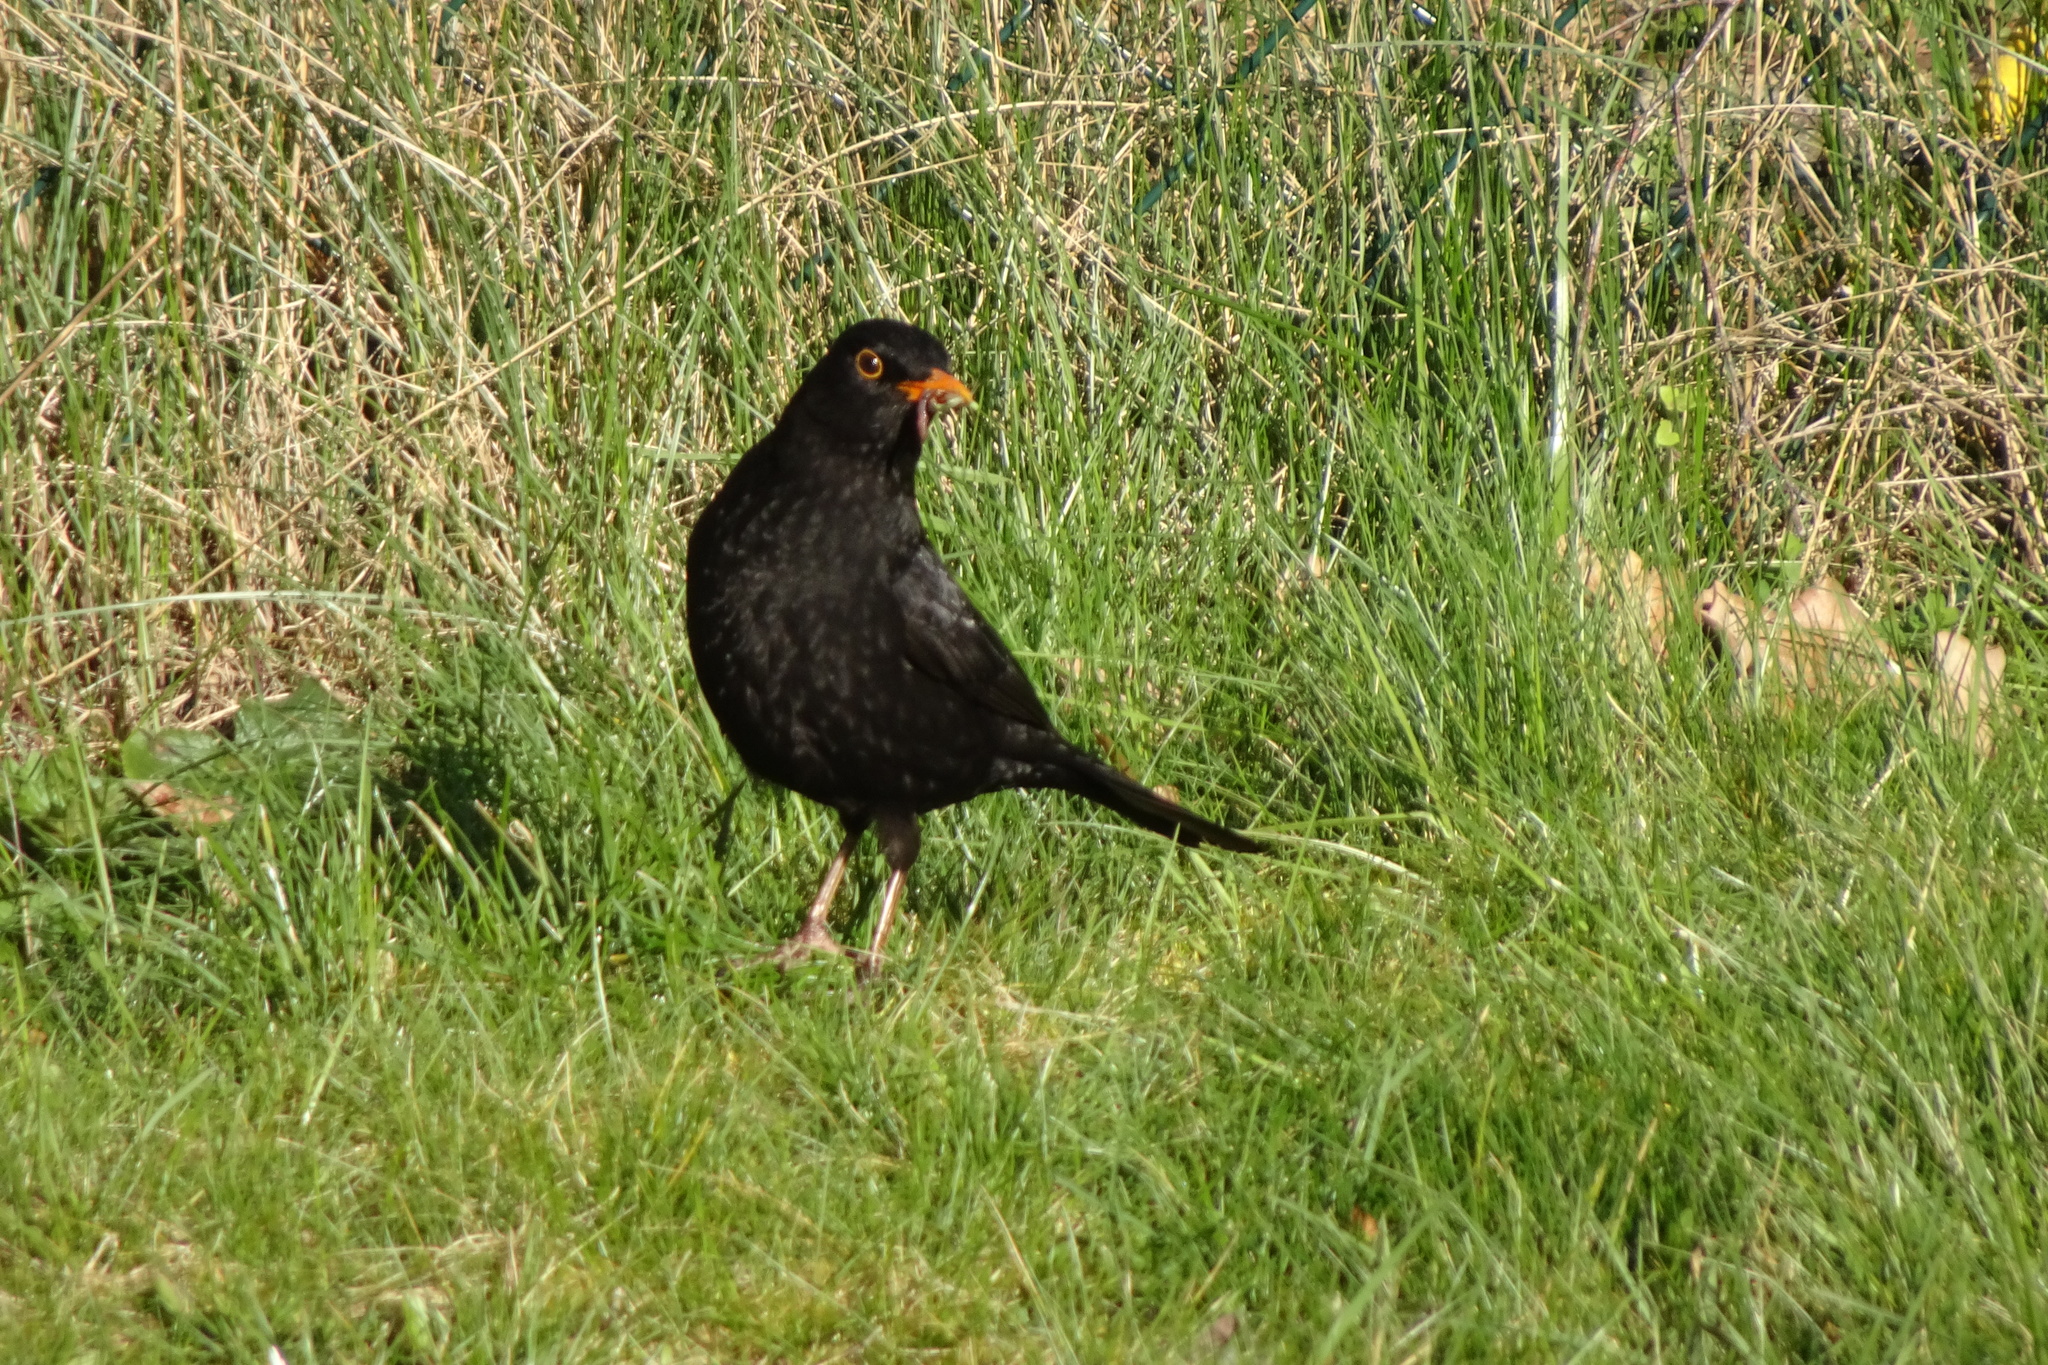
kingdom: Animalia
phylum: Chordata
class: Aves
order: Passeriformes
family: Turdidae
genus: Turdus
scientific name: Turdus merula
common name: Common blackbird
